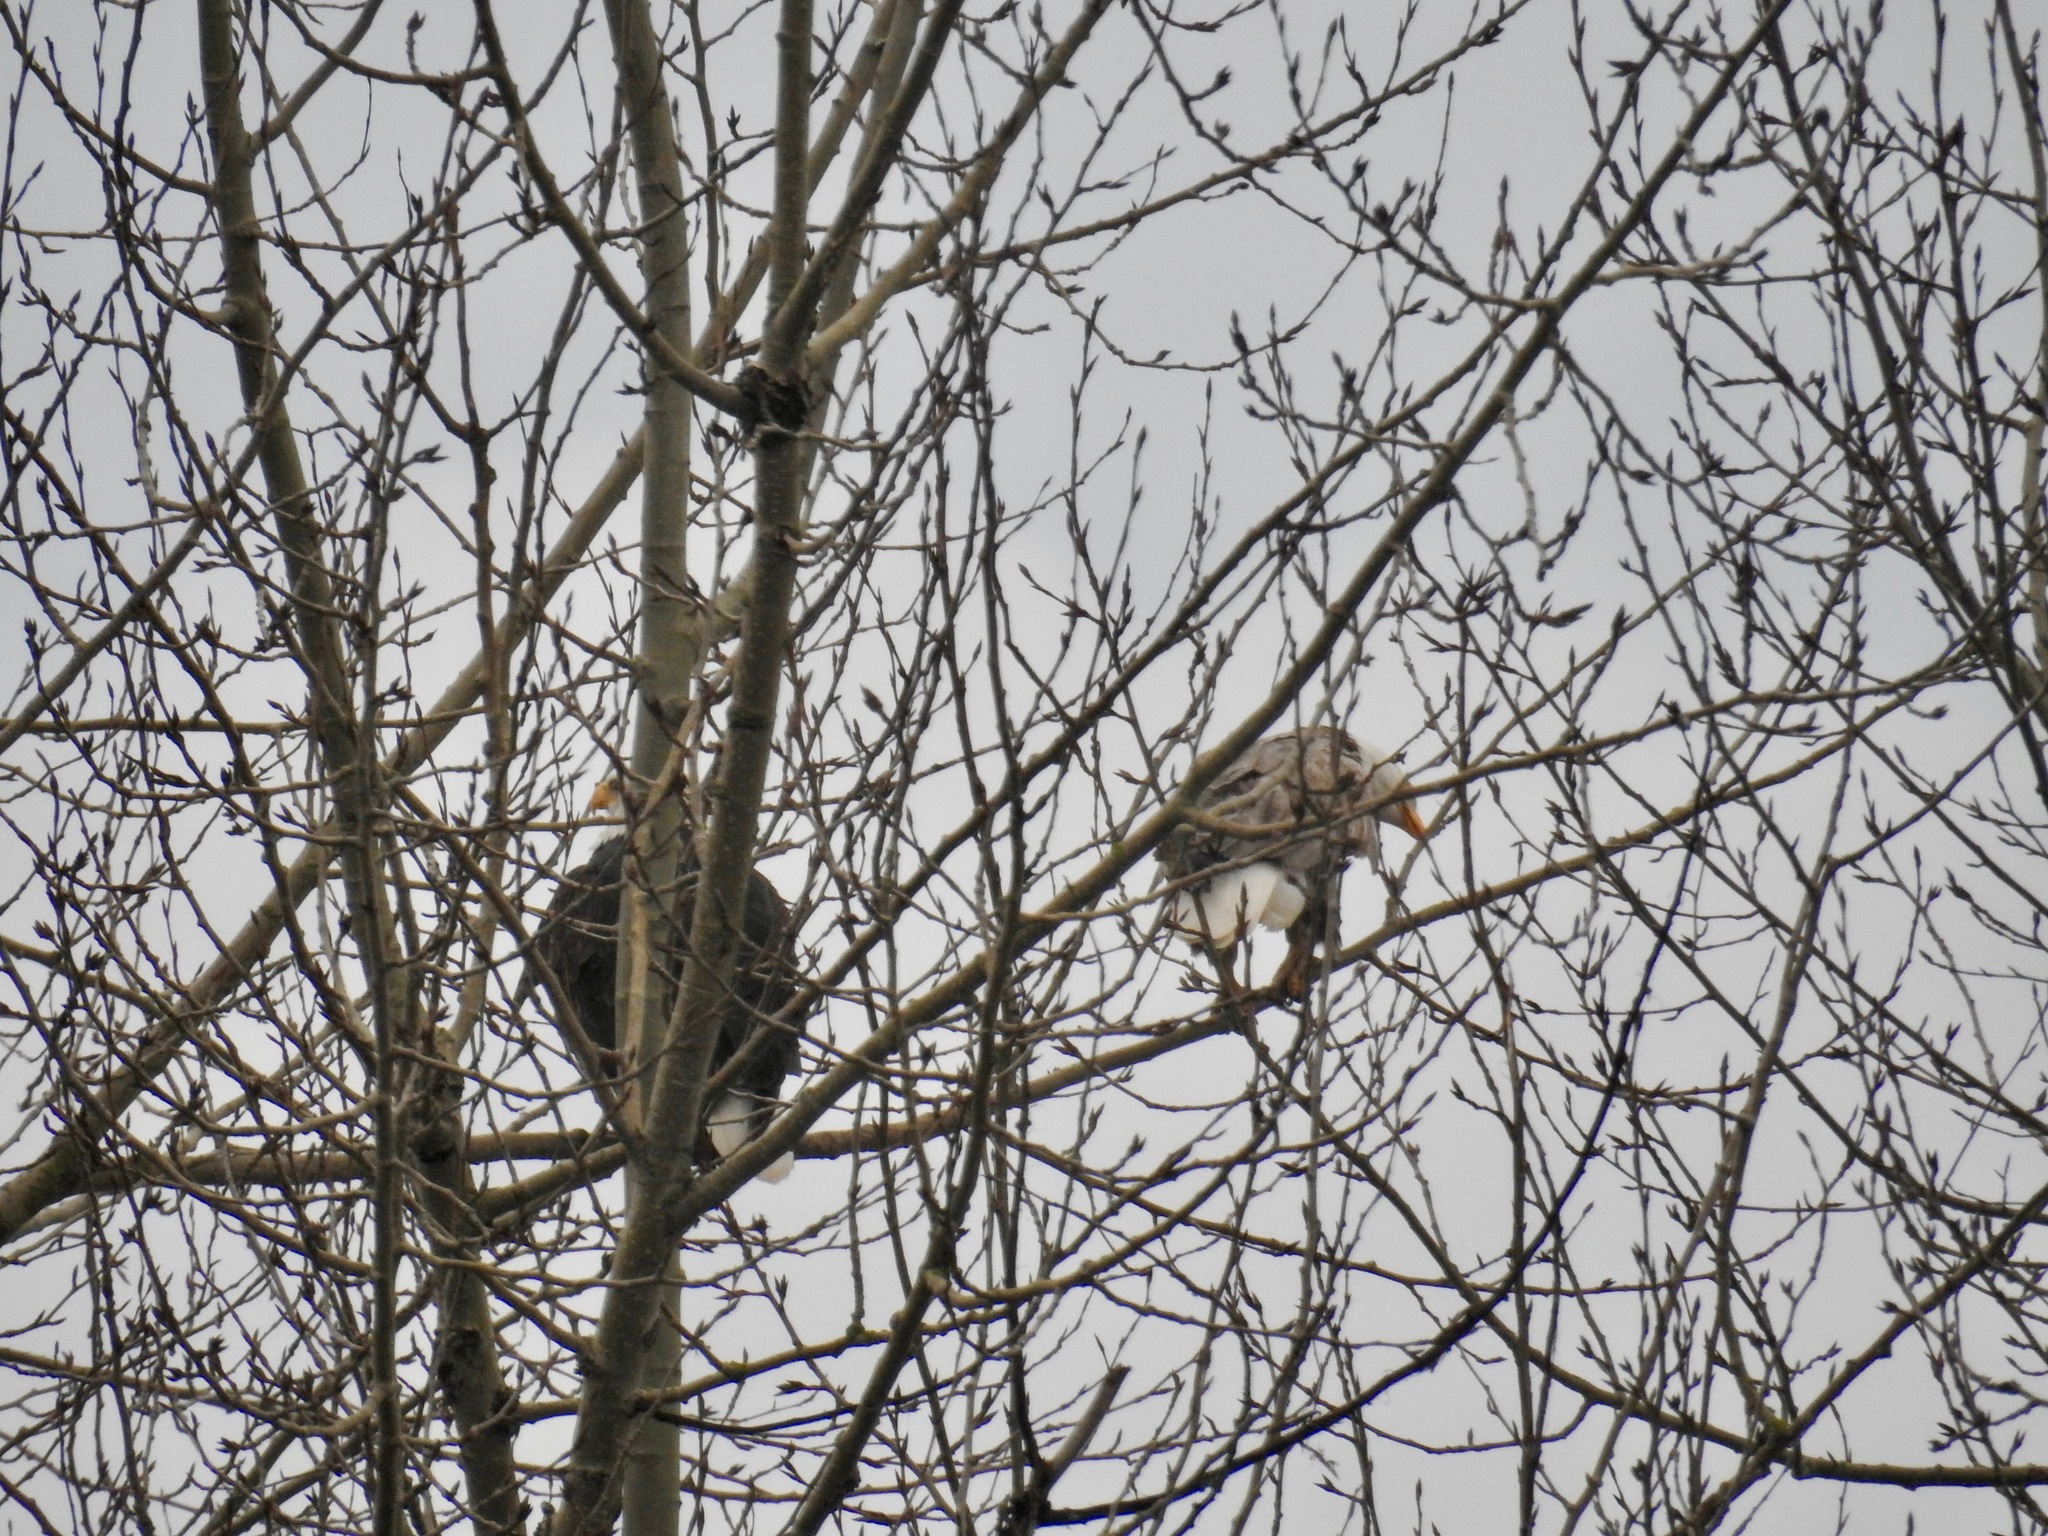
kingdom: Animalia
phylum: Chordata
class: Aves
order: Accipitriformes
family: Accipitridae
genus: Haliaeetus
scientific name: Haliaeetus leucocephalus
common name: Bald eagle
